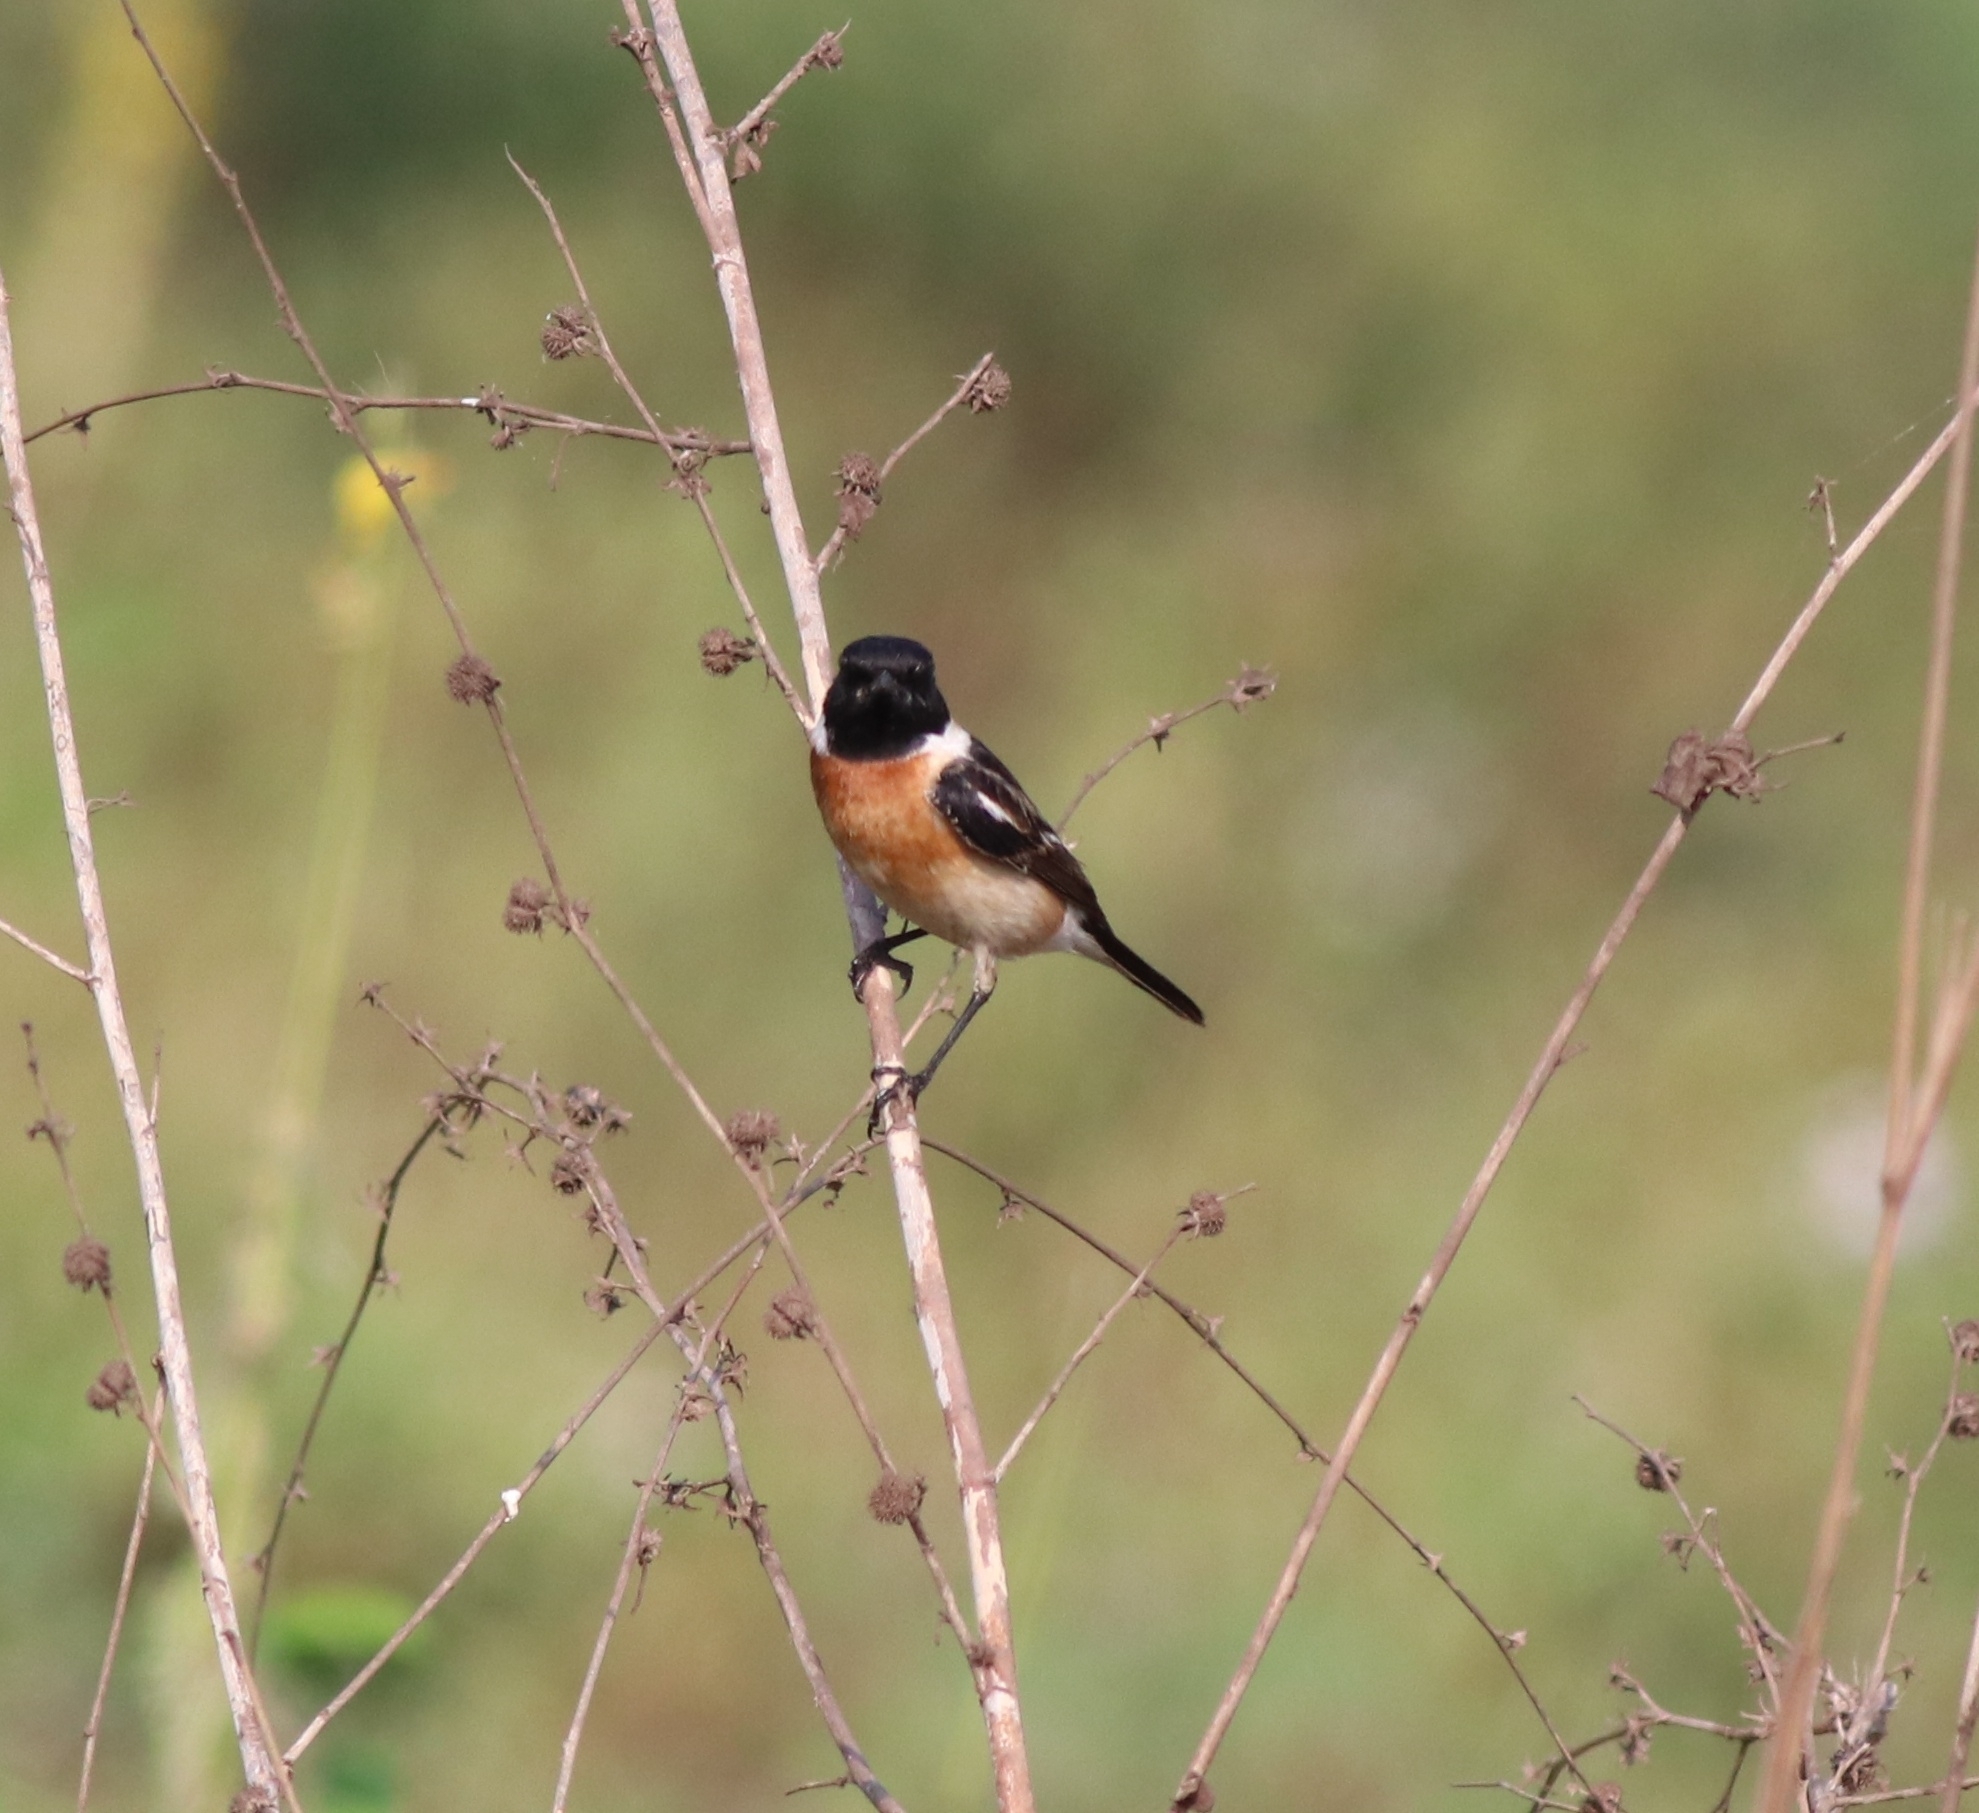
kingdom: Animalia
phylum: Chordata
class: Aves
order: Passeriformes
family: Muscicapidae
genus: Saxicola
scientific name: Saxicola maurus
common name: Siberian stonechat
